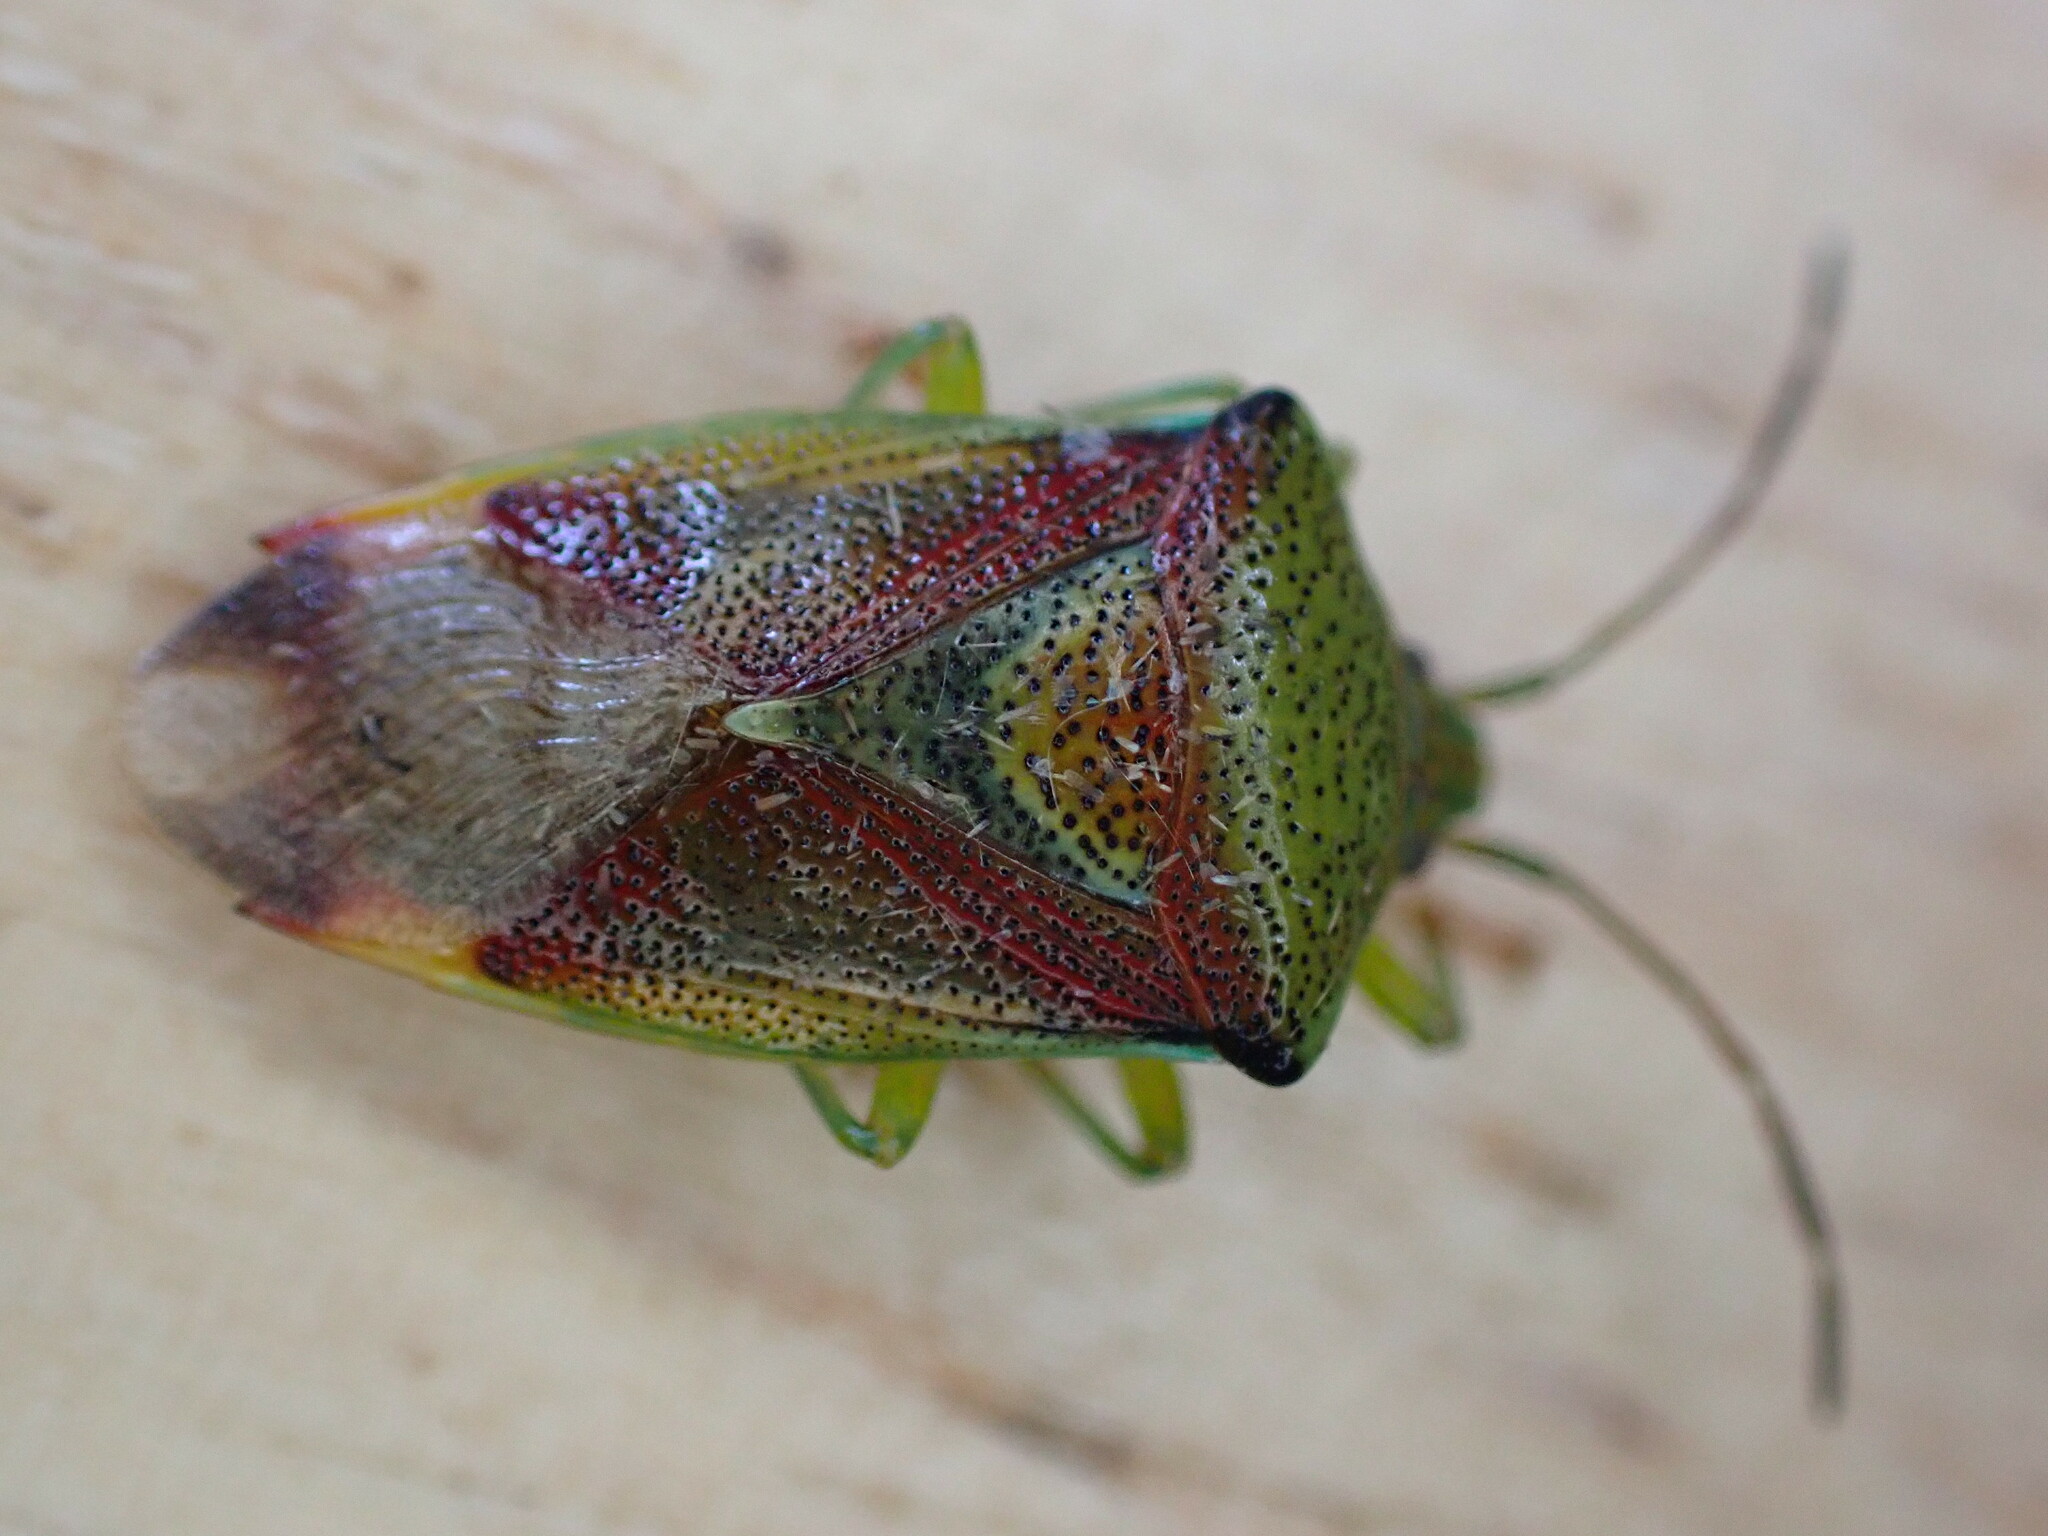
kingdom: Animalia
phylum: Arthropoda
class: Insecta
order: Hemiptera
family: Acanthosomatidae
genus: Elasmostethus
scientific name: Elasmostethus interstinctus
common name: Birch shieldbug
